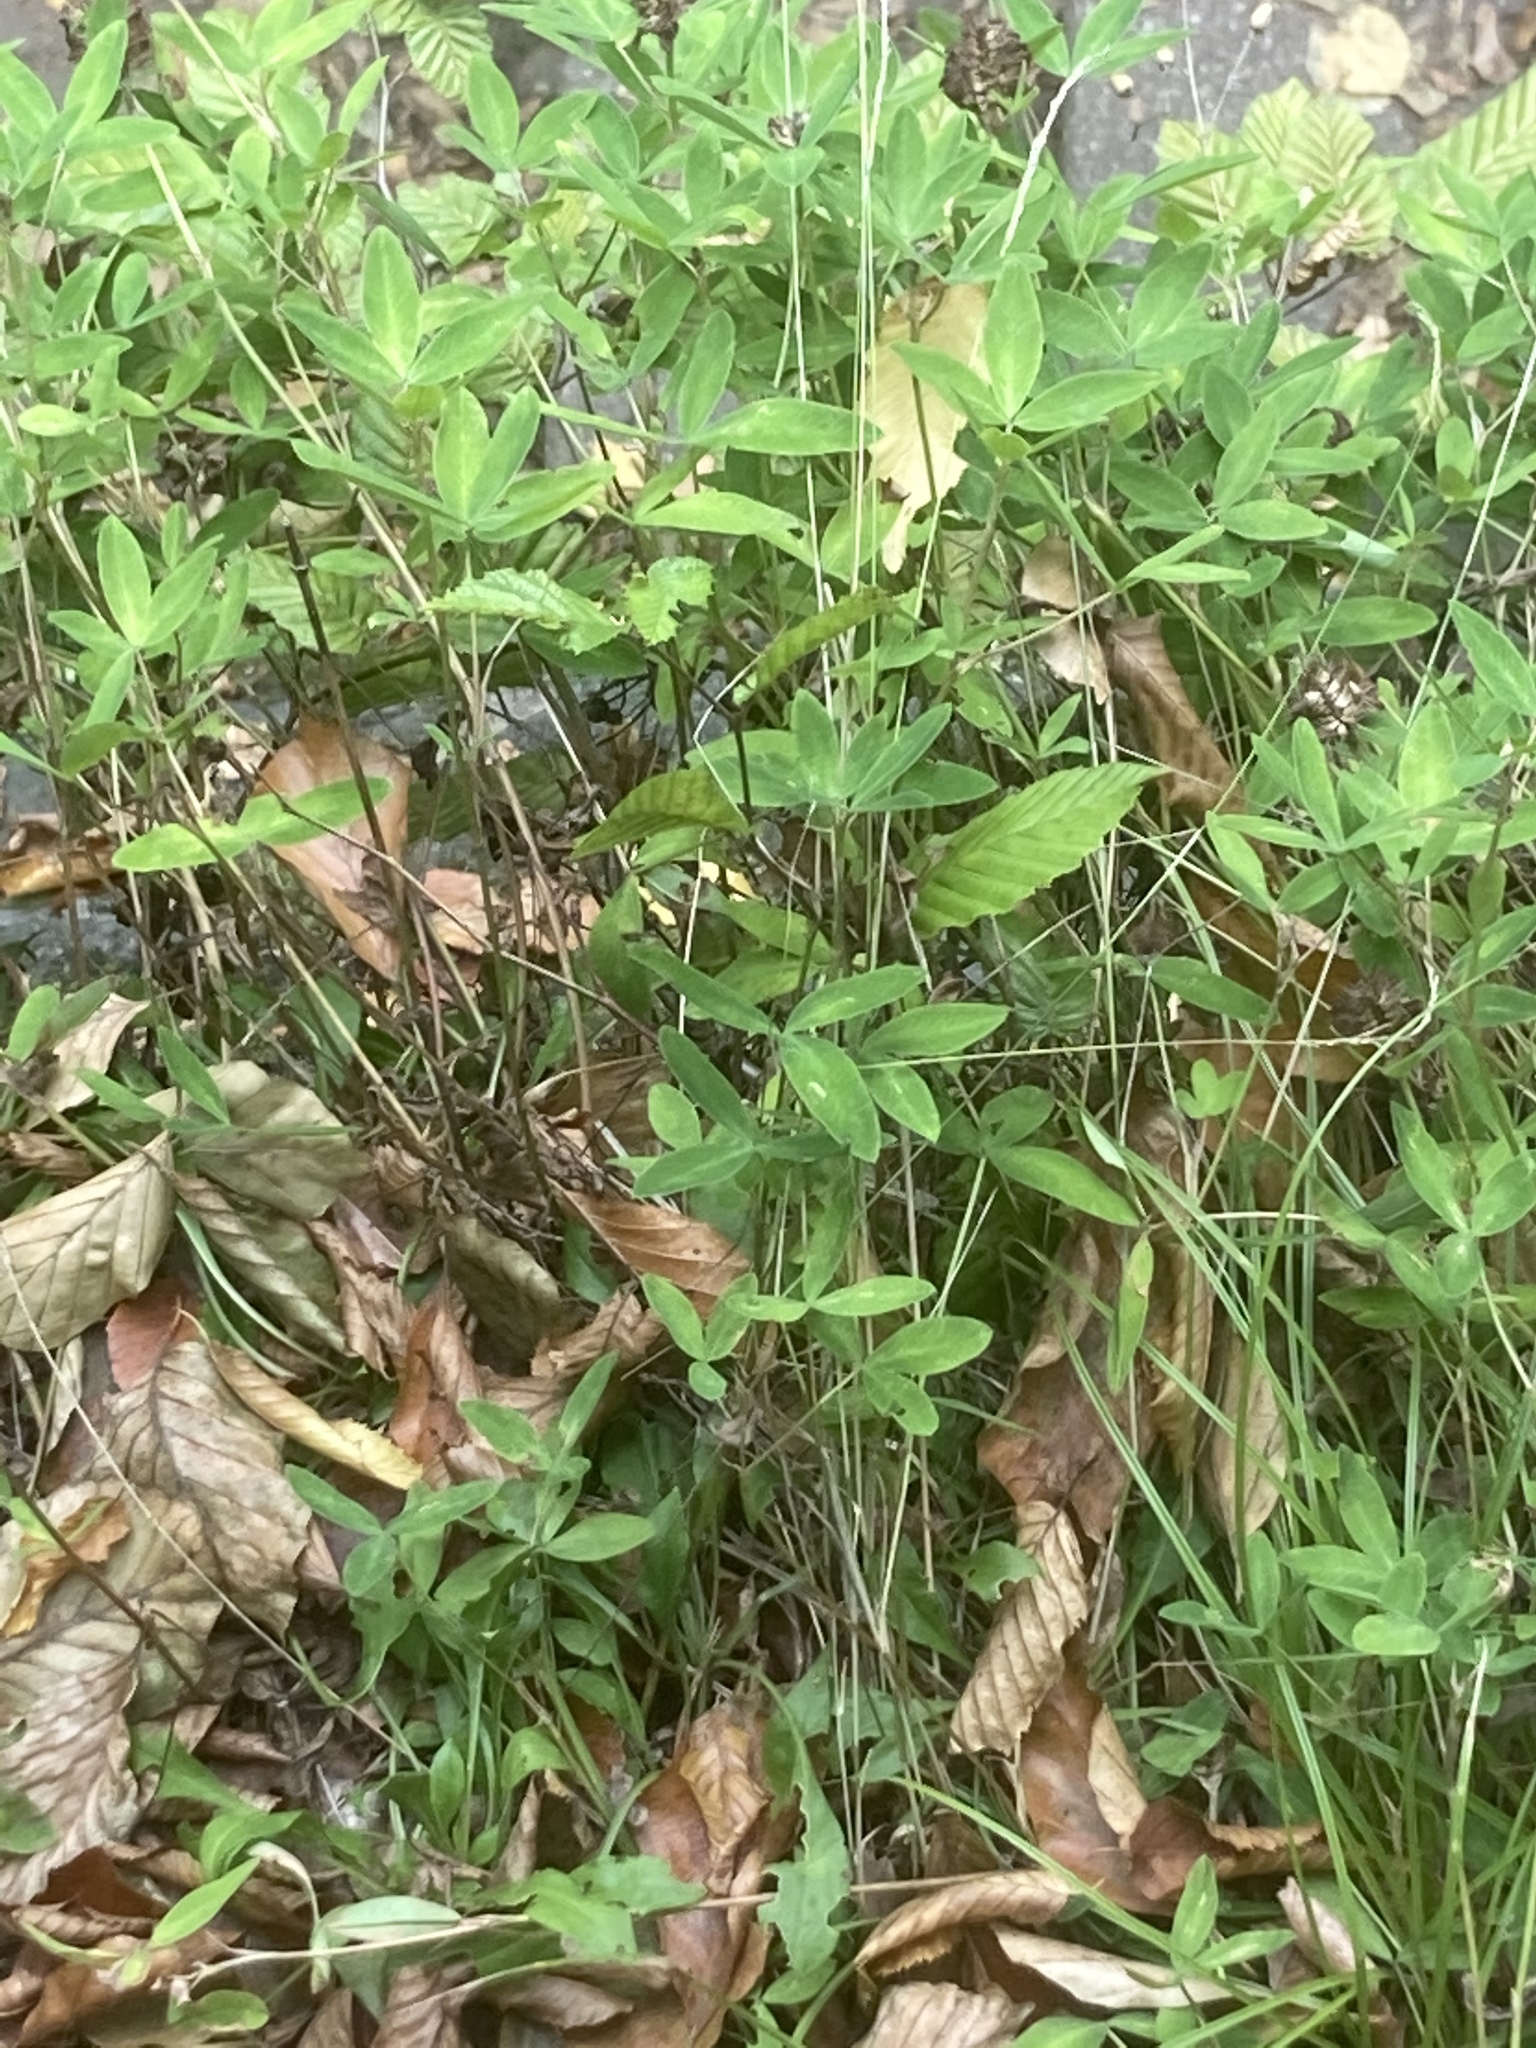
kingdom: Plantae
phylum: Tracheophyta
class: Magnoliopsida
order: Fabales
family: Fabaceae
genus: Trifolium
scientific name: Trifolium medium
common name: Zigzag clover
